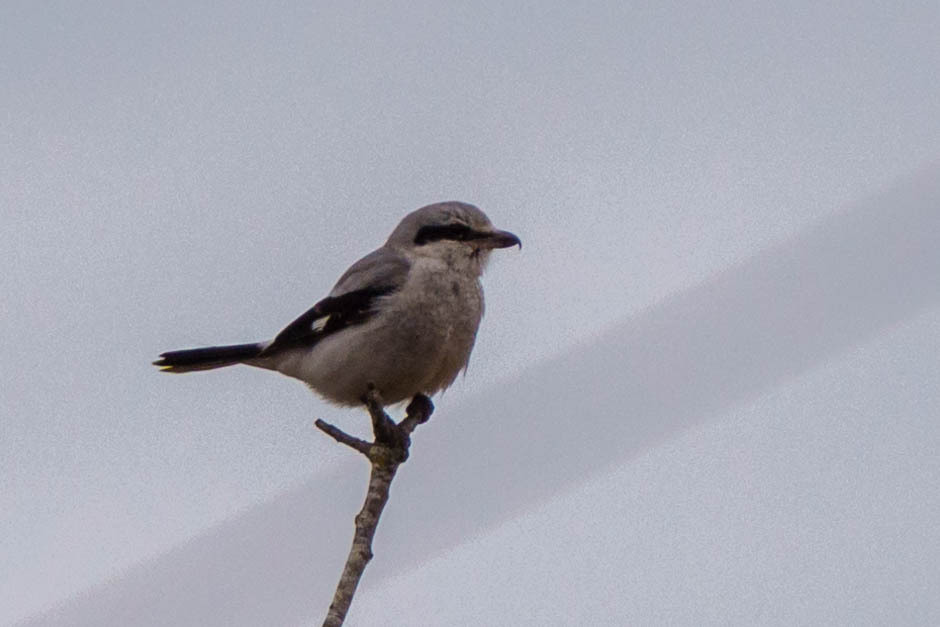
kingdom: Animalia
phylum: Chordata
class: Aves
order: Passeriformes
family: Laniidae
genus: Lanius
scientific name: Lanius borealis
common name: Northern shrike
